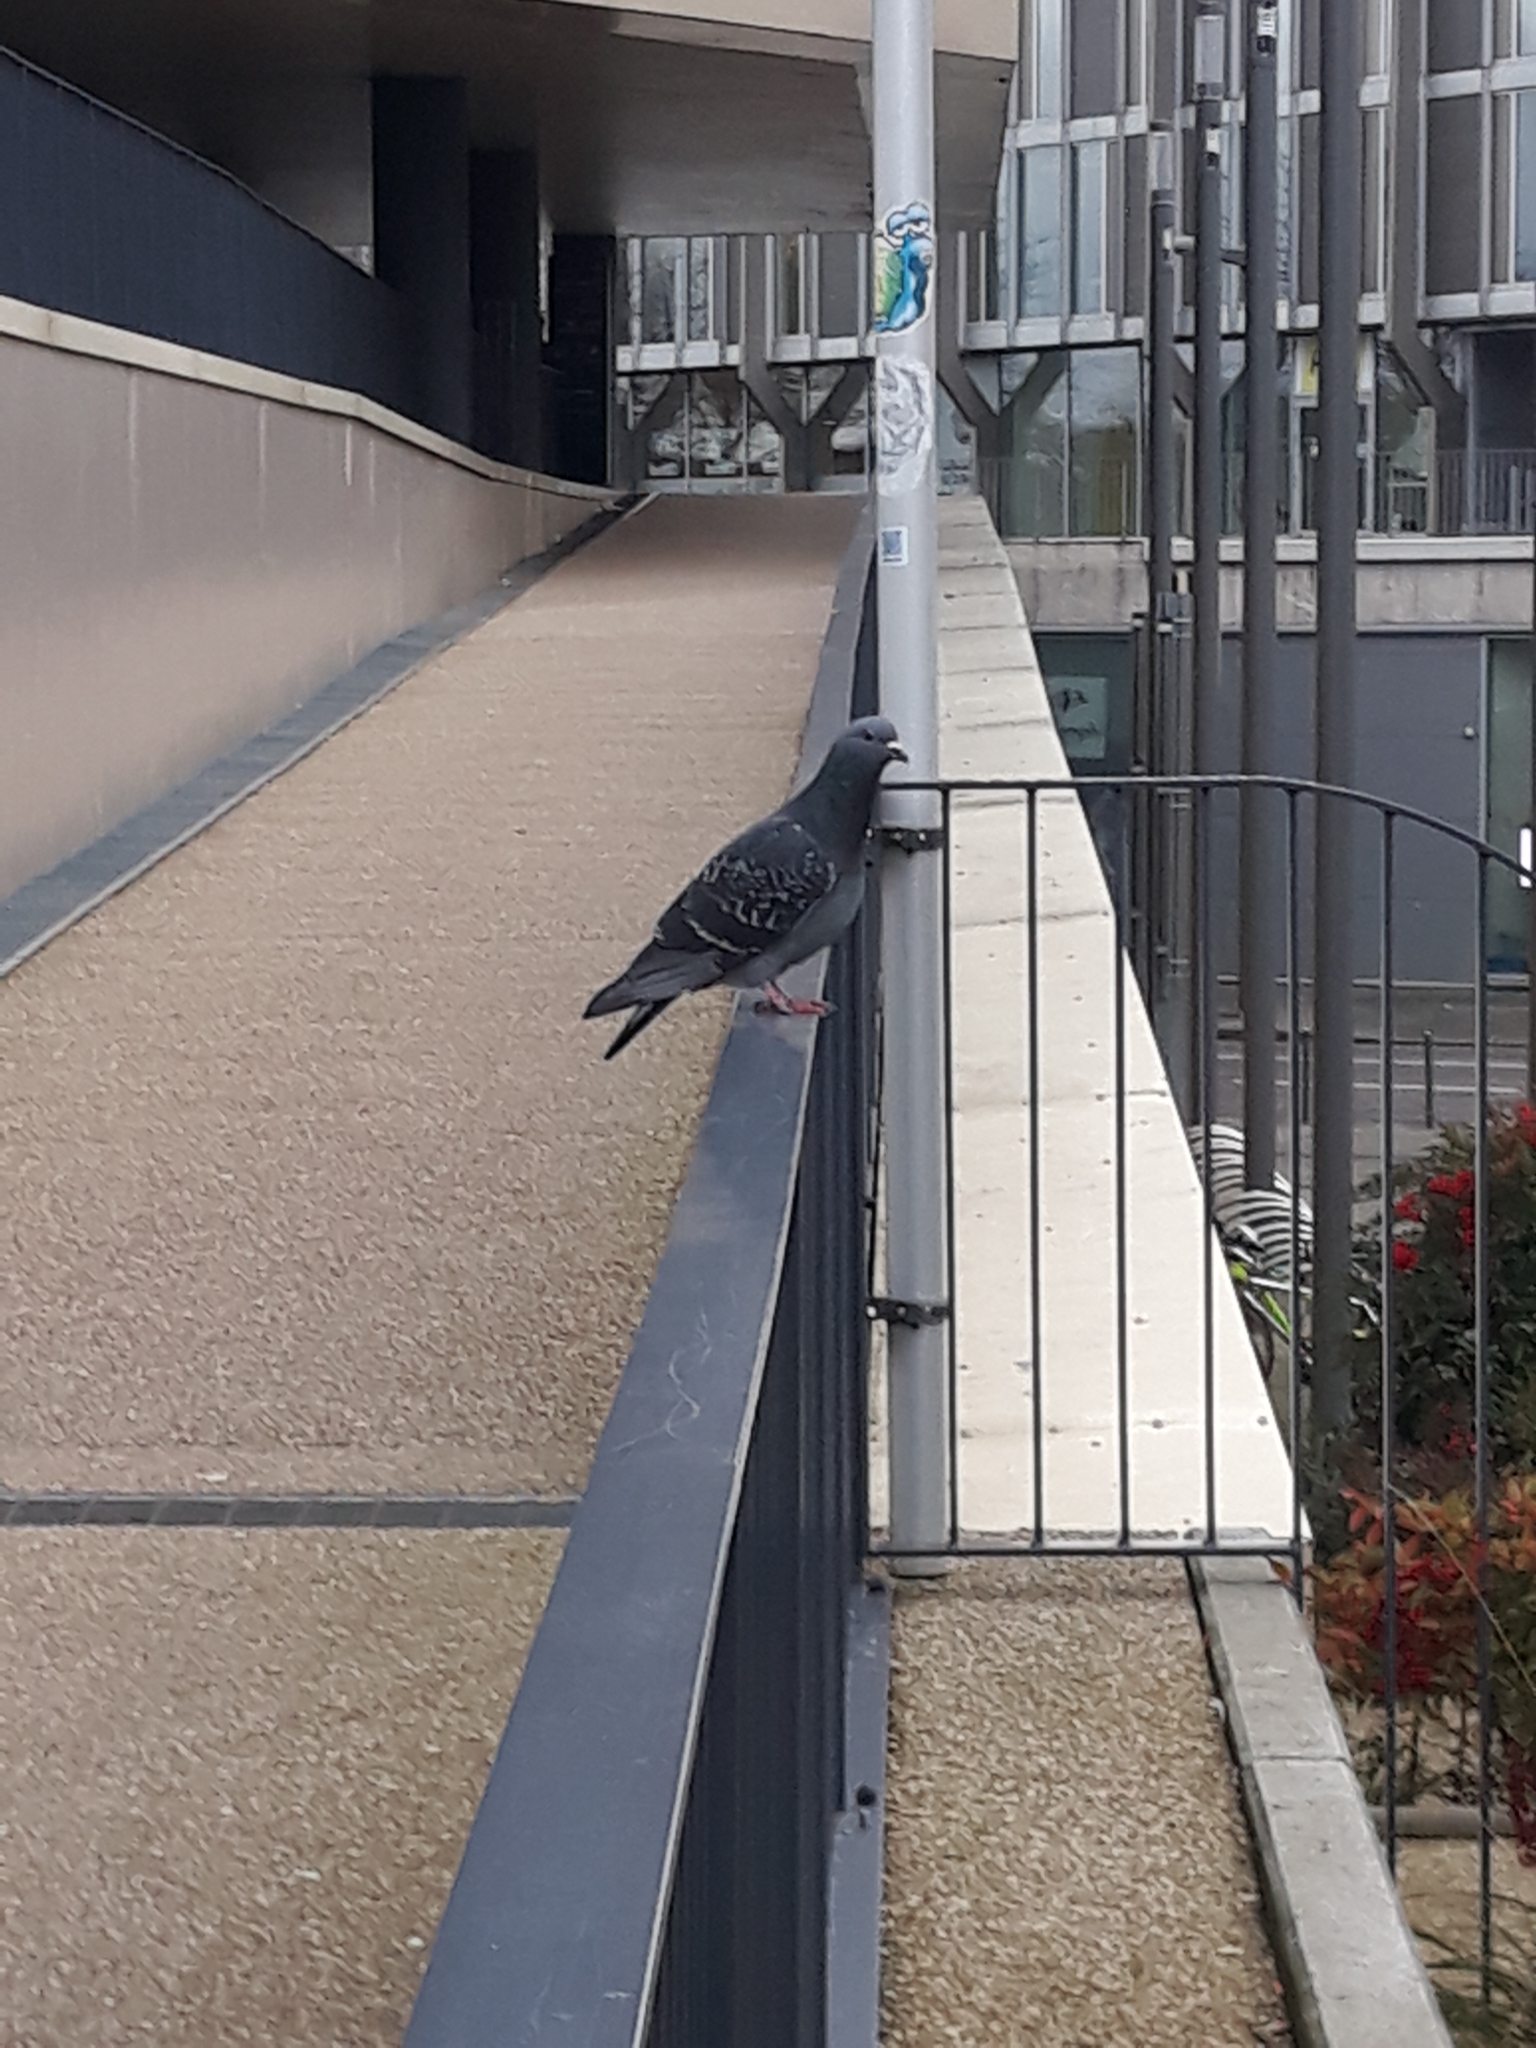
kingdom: Animalia
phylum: Chordata
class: Aves
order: Columbiformes
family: Columbidae
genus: Columba
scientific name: Columba livia
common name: Rock pigeon
